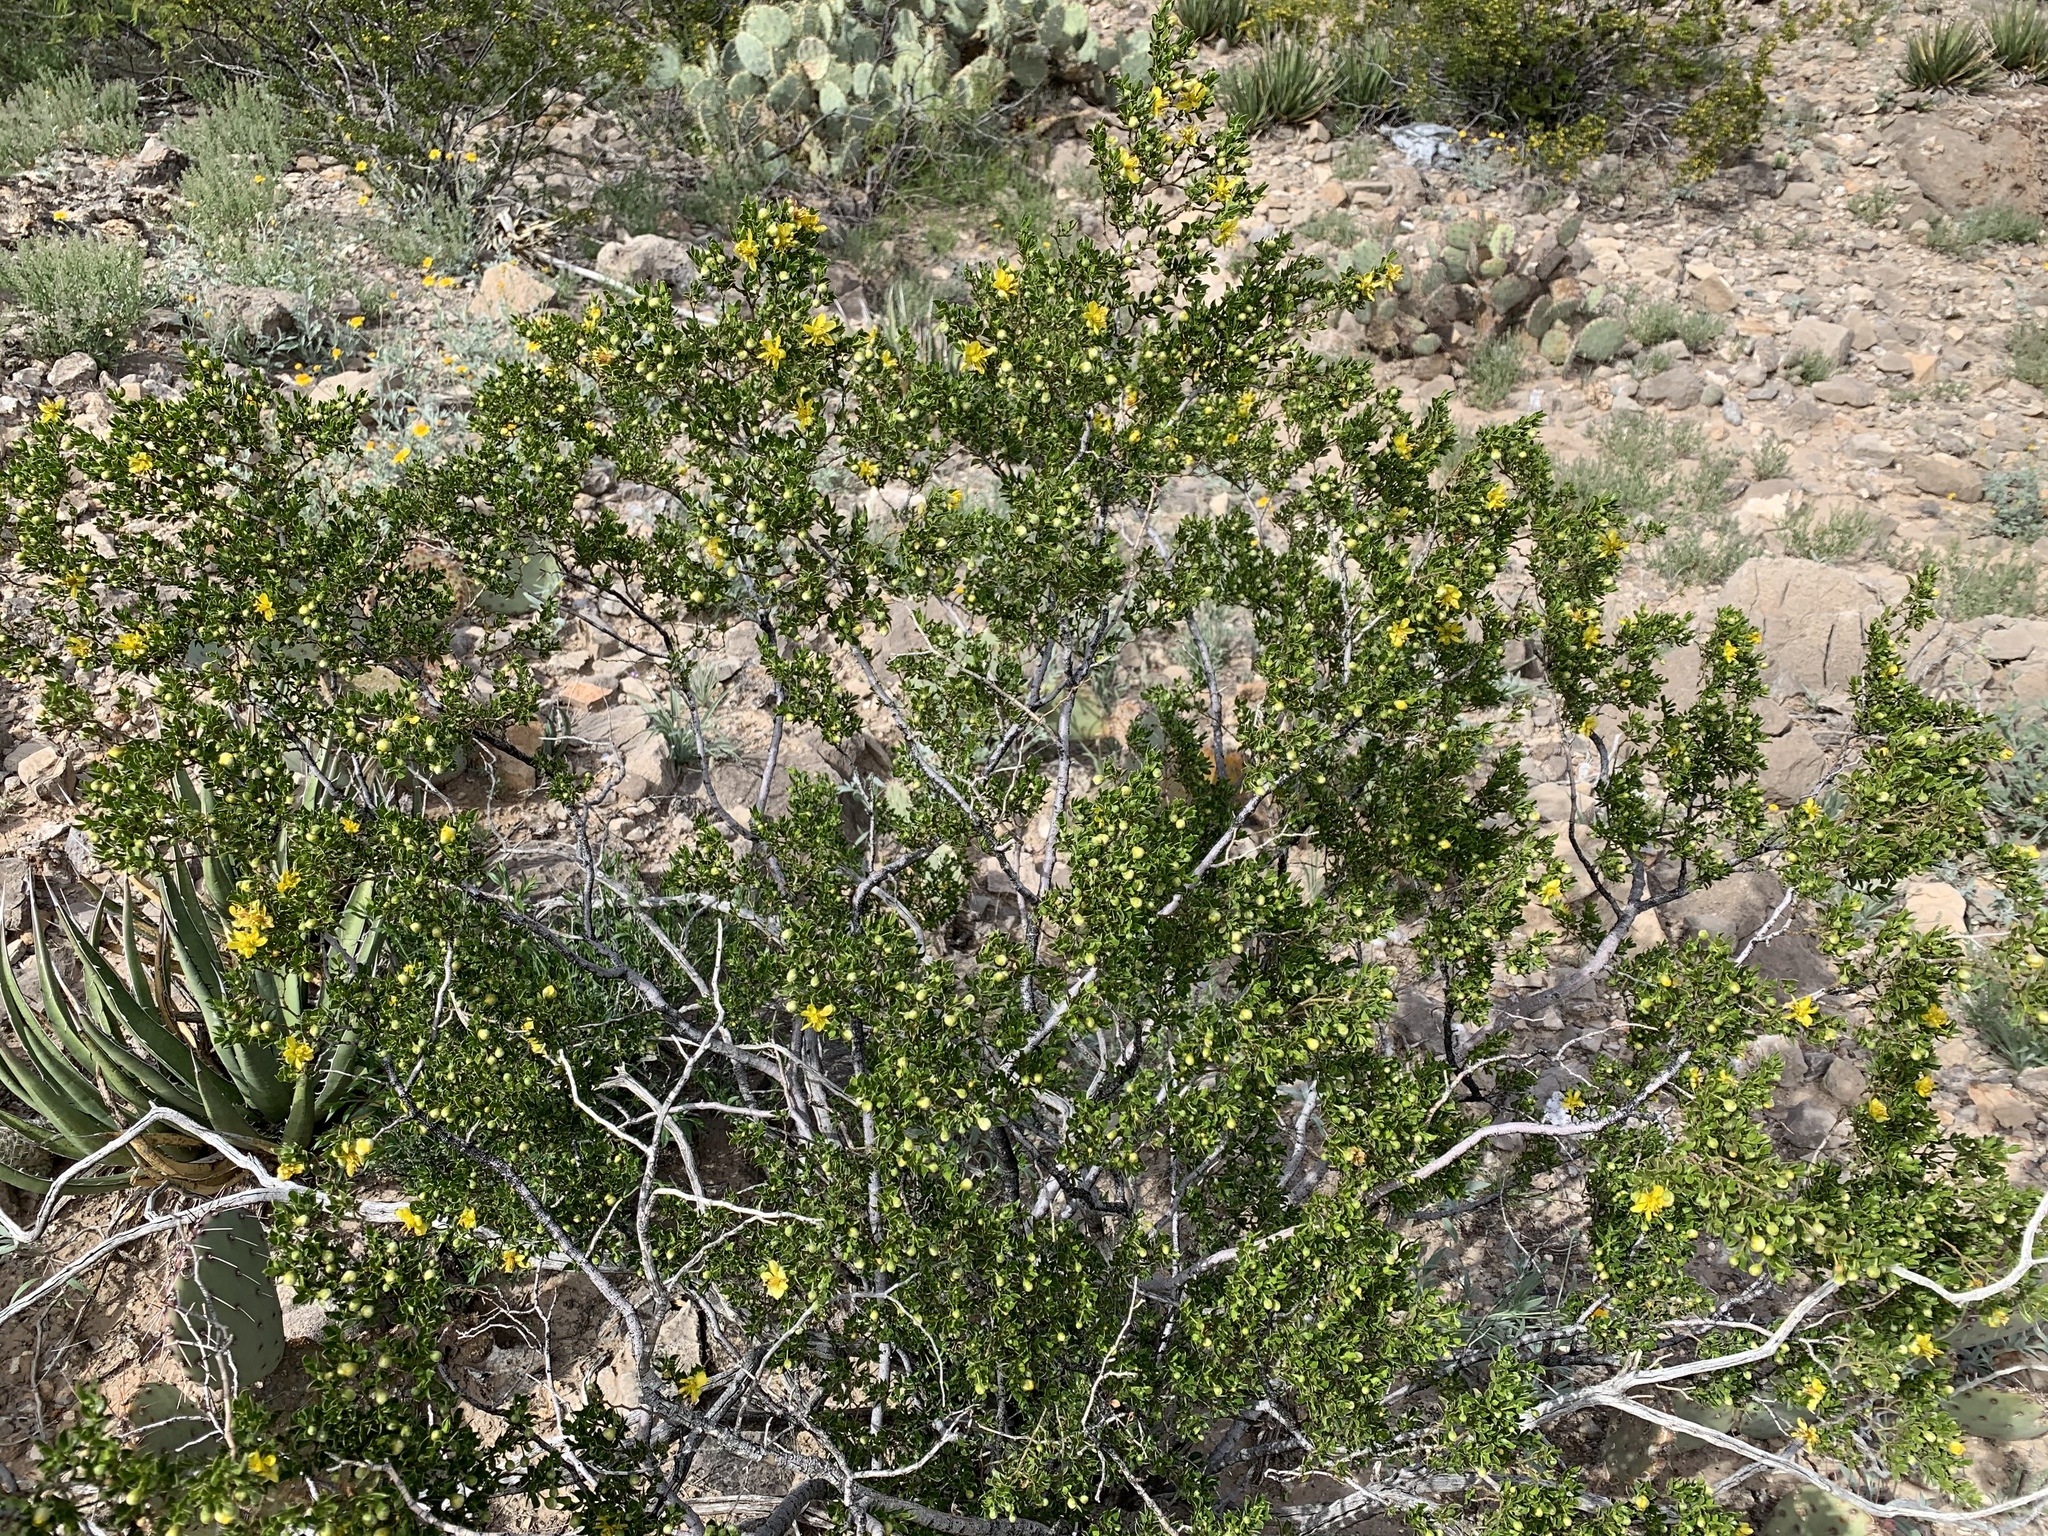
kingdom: Plantae
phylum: Tracheophyta
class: Magnoliopsida
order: Zygophyllales
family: Zygophyllaceae
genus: Larrea
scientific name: Larrea tridentata
